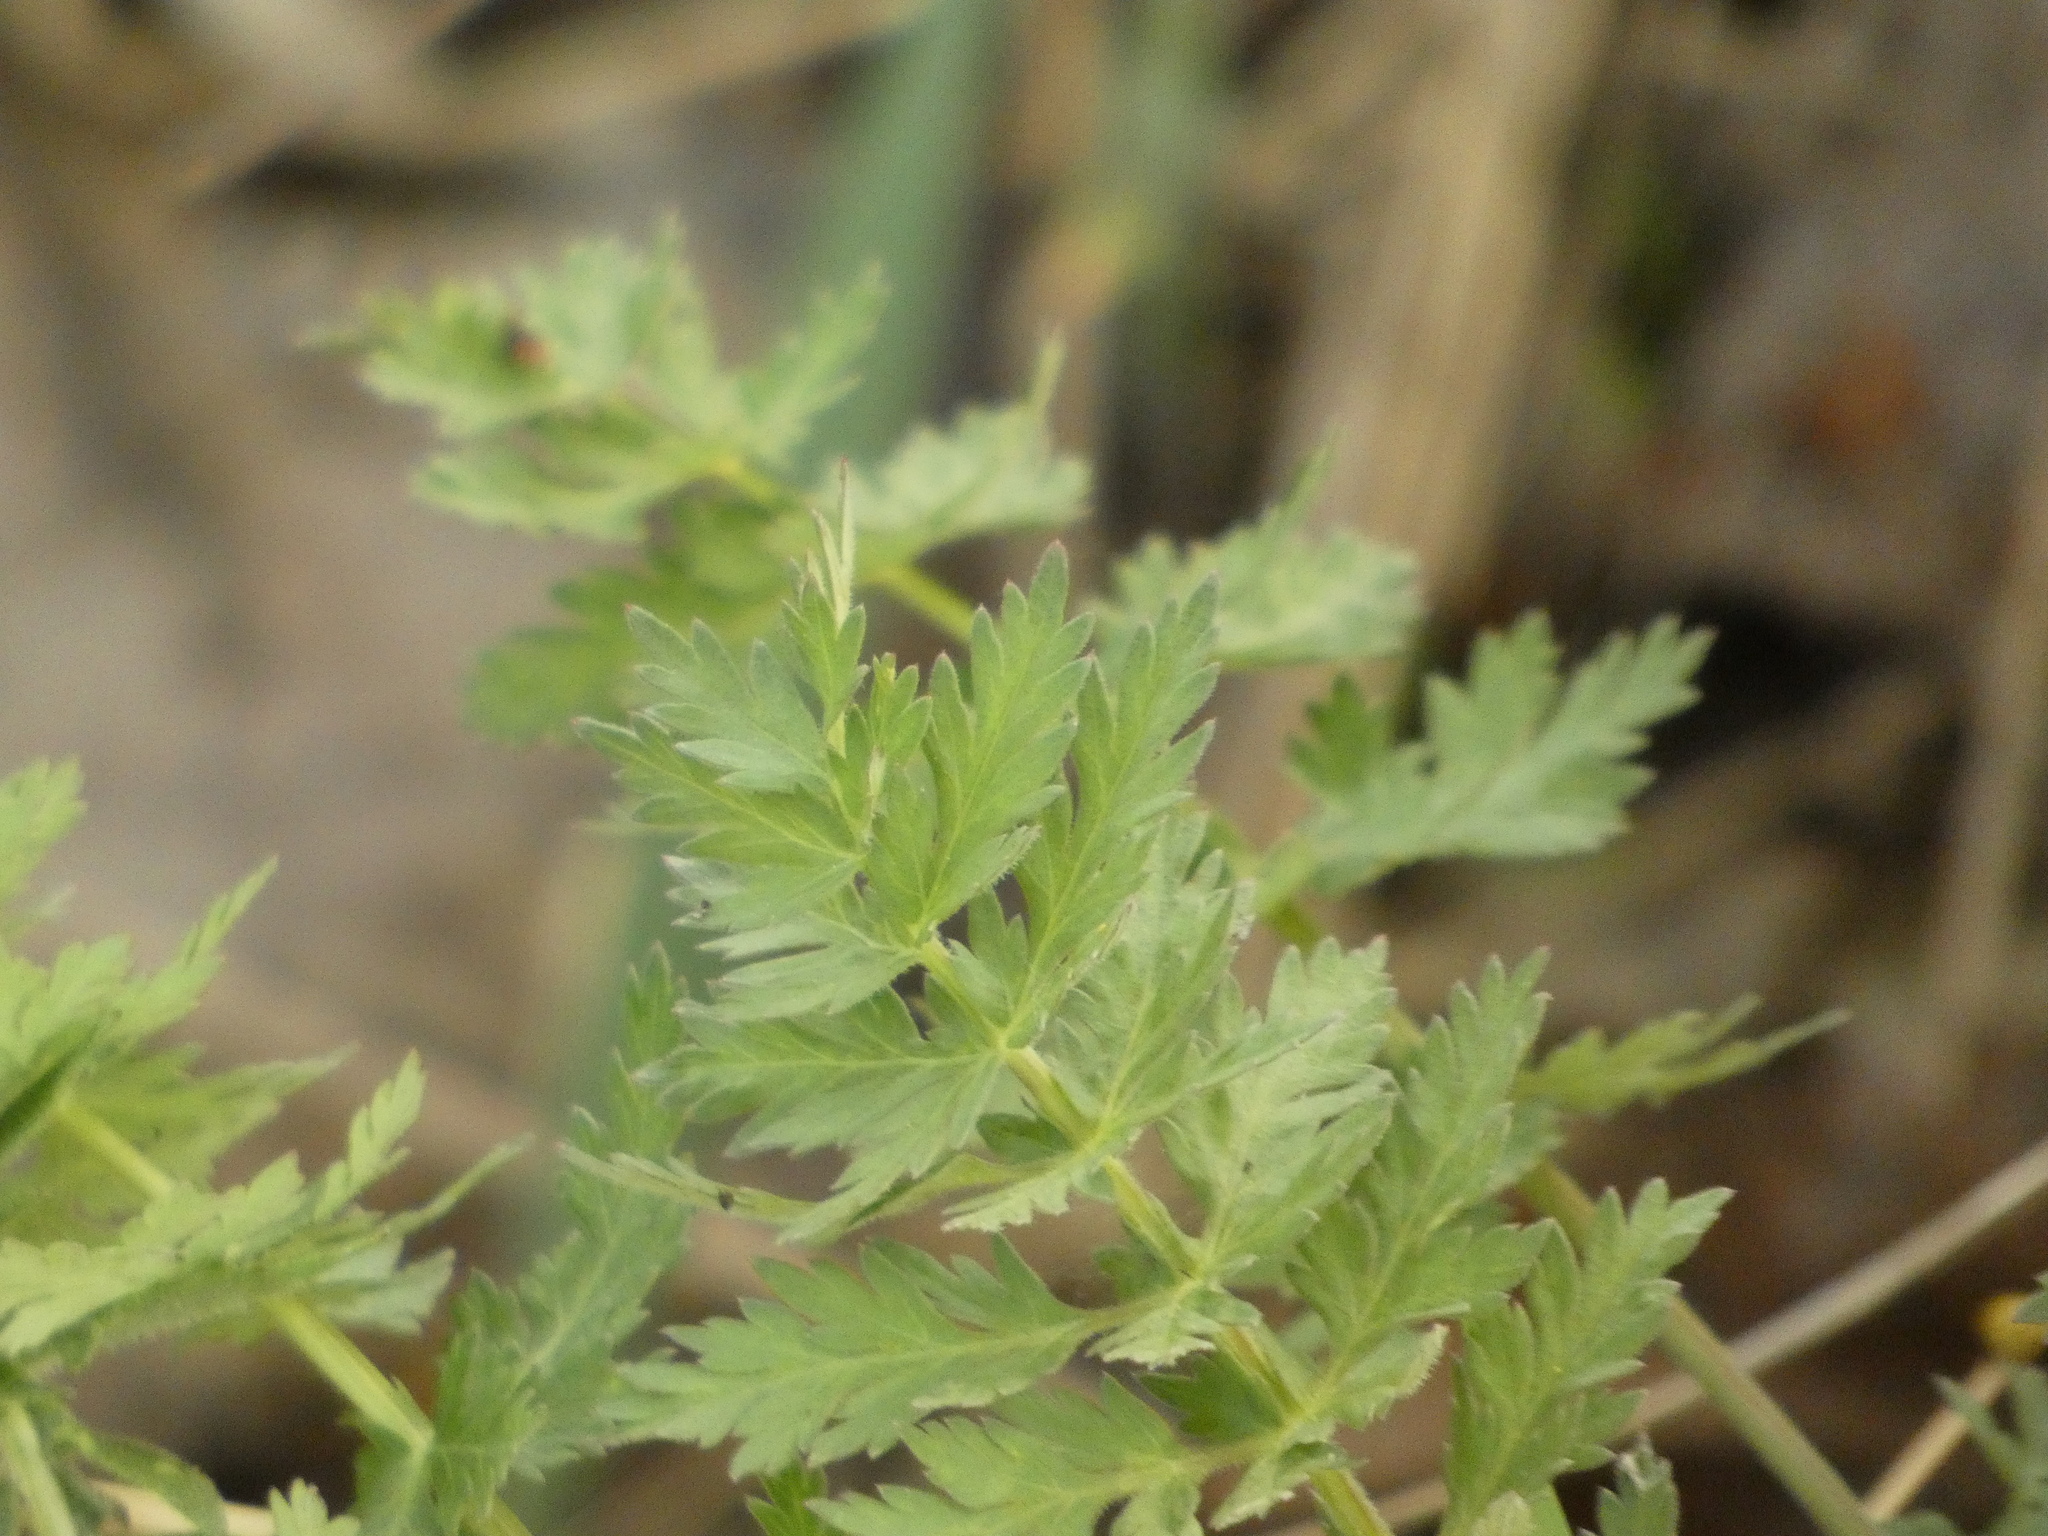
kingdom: Plantae
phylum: Tracheophyta
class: Magnoliopsida
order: Apiales
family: Apiaceae
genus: Seseli
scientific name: Seseli libanotis
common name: Mooncarrot
